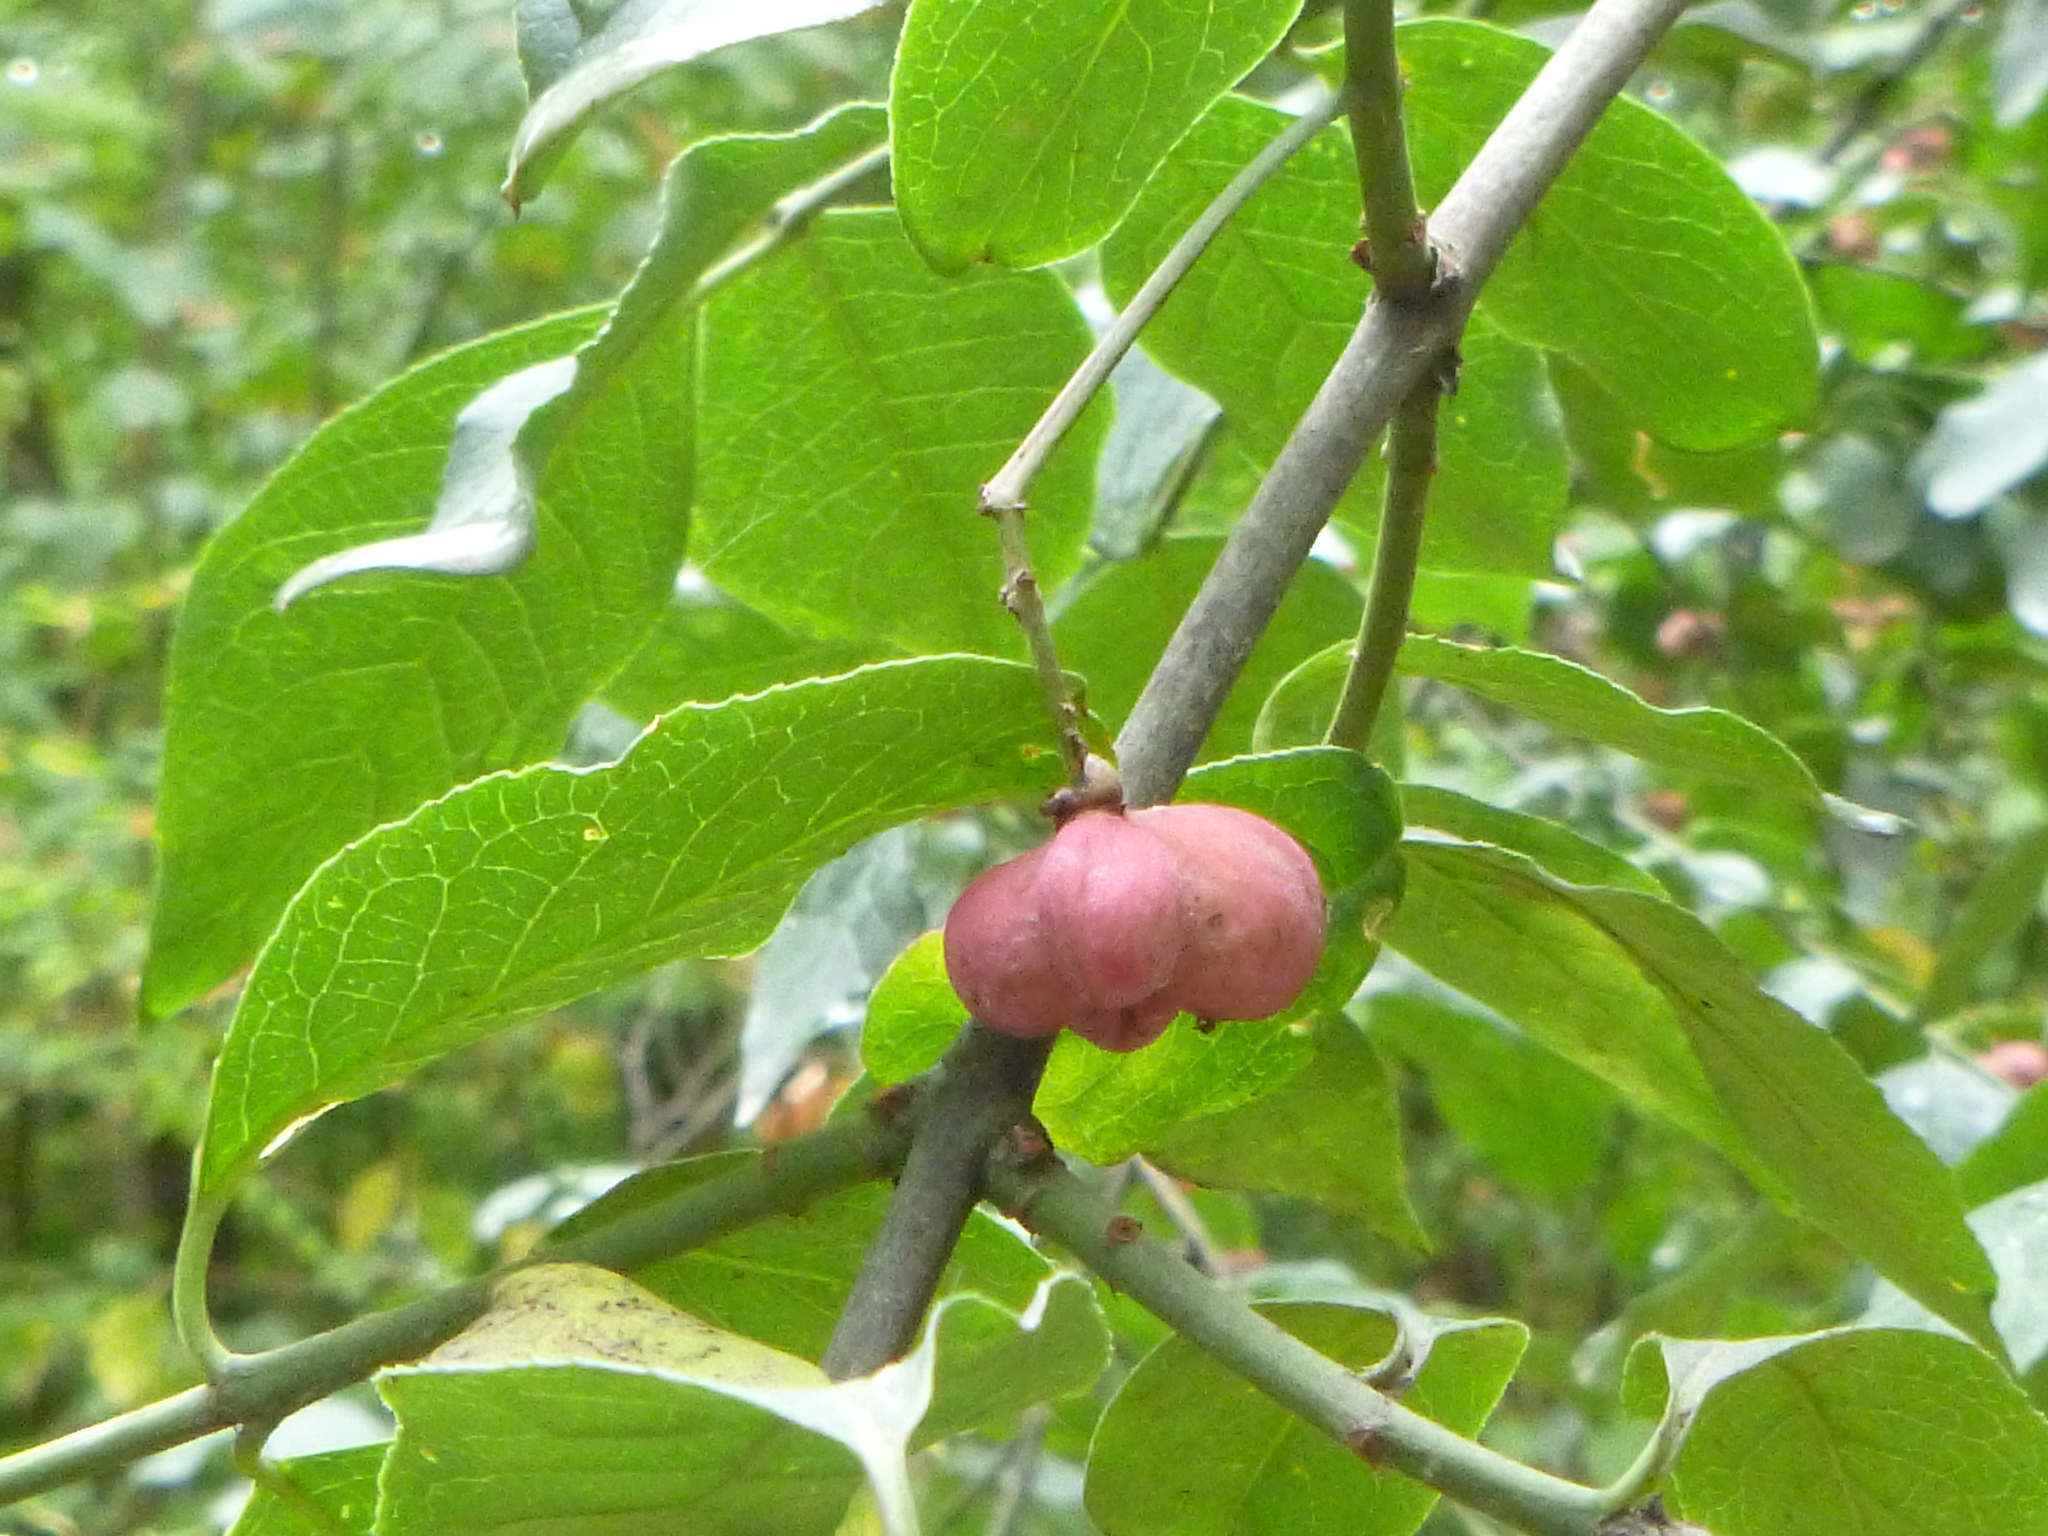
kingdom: Plantae
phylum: Tracheophyta
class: Magnoliopsida
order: Celastrales
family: Celastraceae
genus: Euonymus
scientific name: Euonymus europaeus
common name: Spindle
